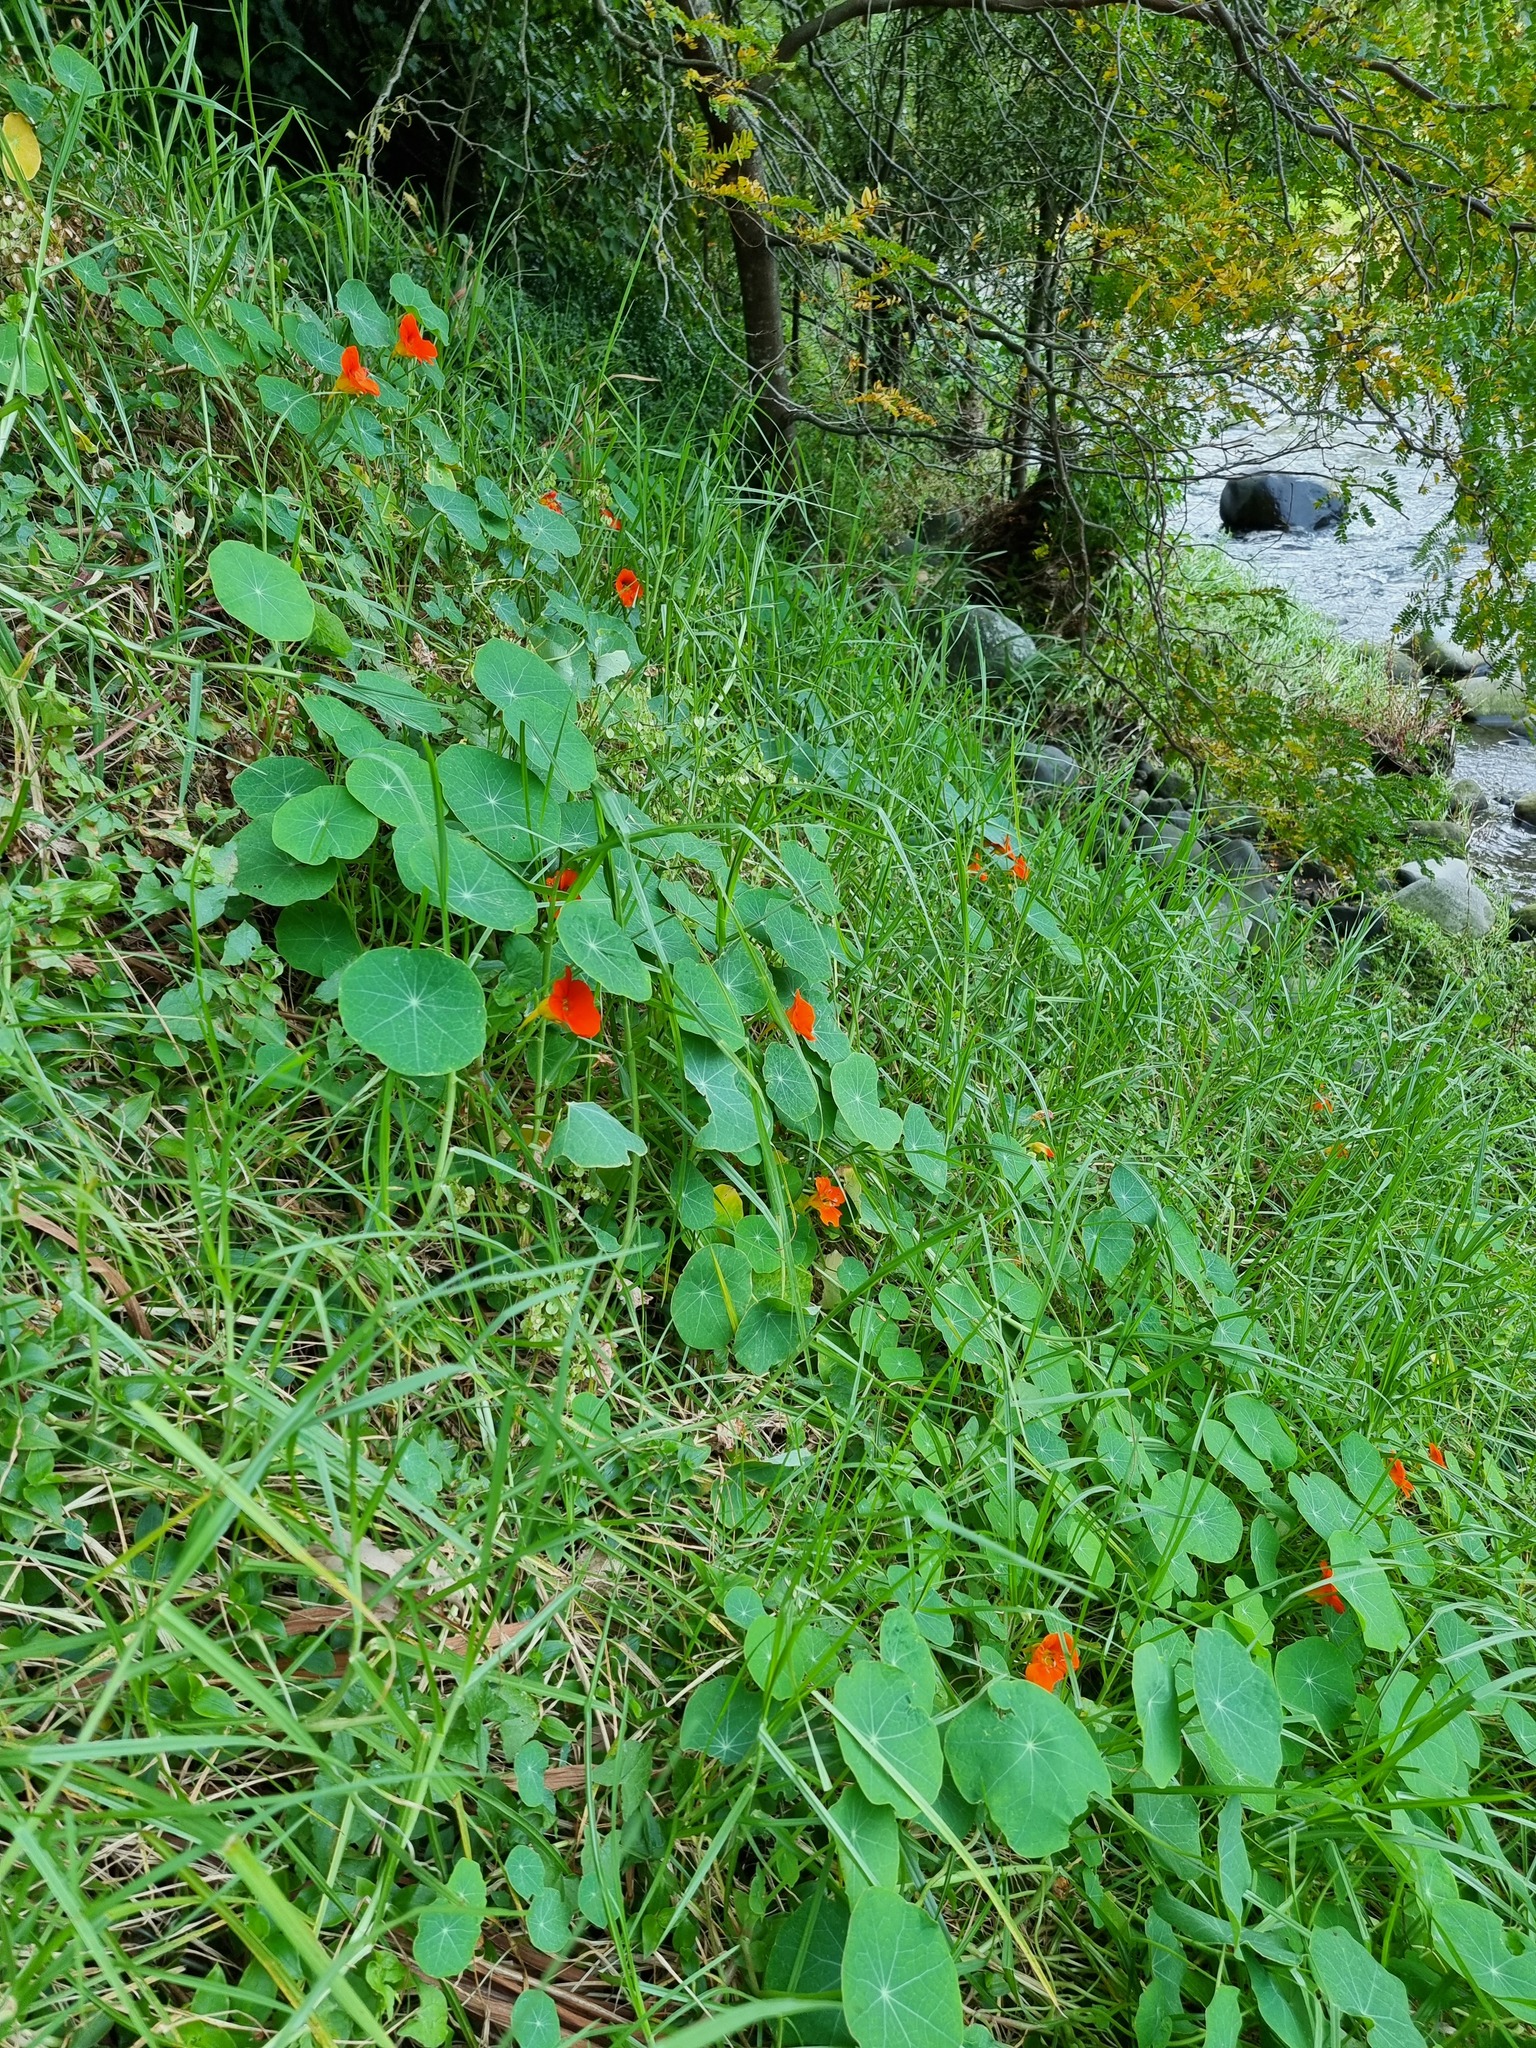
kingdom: Plantae
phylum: Tracheophyta
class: Magnoliopsida
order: Brassicales
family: Tropaeolaceae
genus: Tropaeolum
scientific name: Tropaeolum majus
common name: Nasturtium
